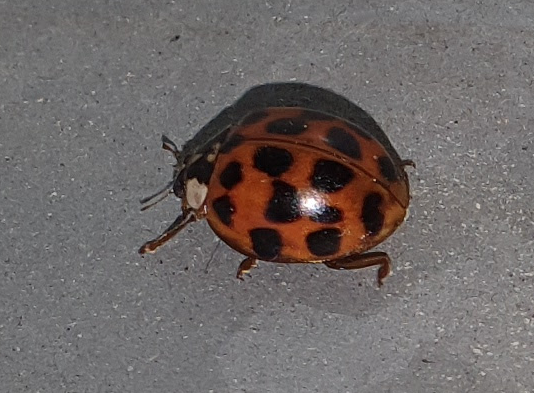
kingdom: Animalia
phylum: Arthropoda
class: Insecta
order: Coleoptera
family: Coccinellidae
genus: Harmonia
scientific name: Harmonia axyridis
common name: Harlequin ladybird
